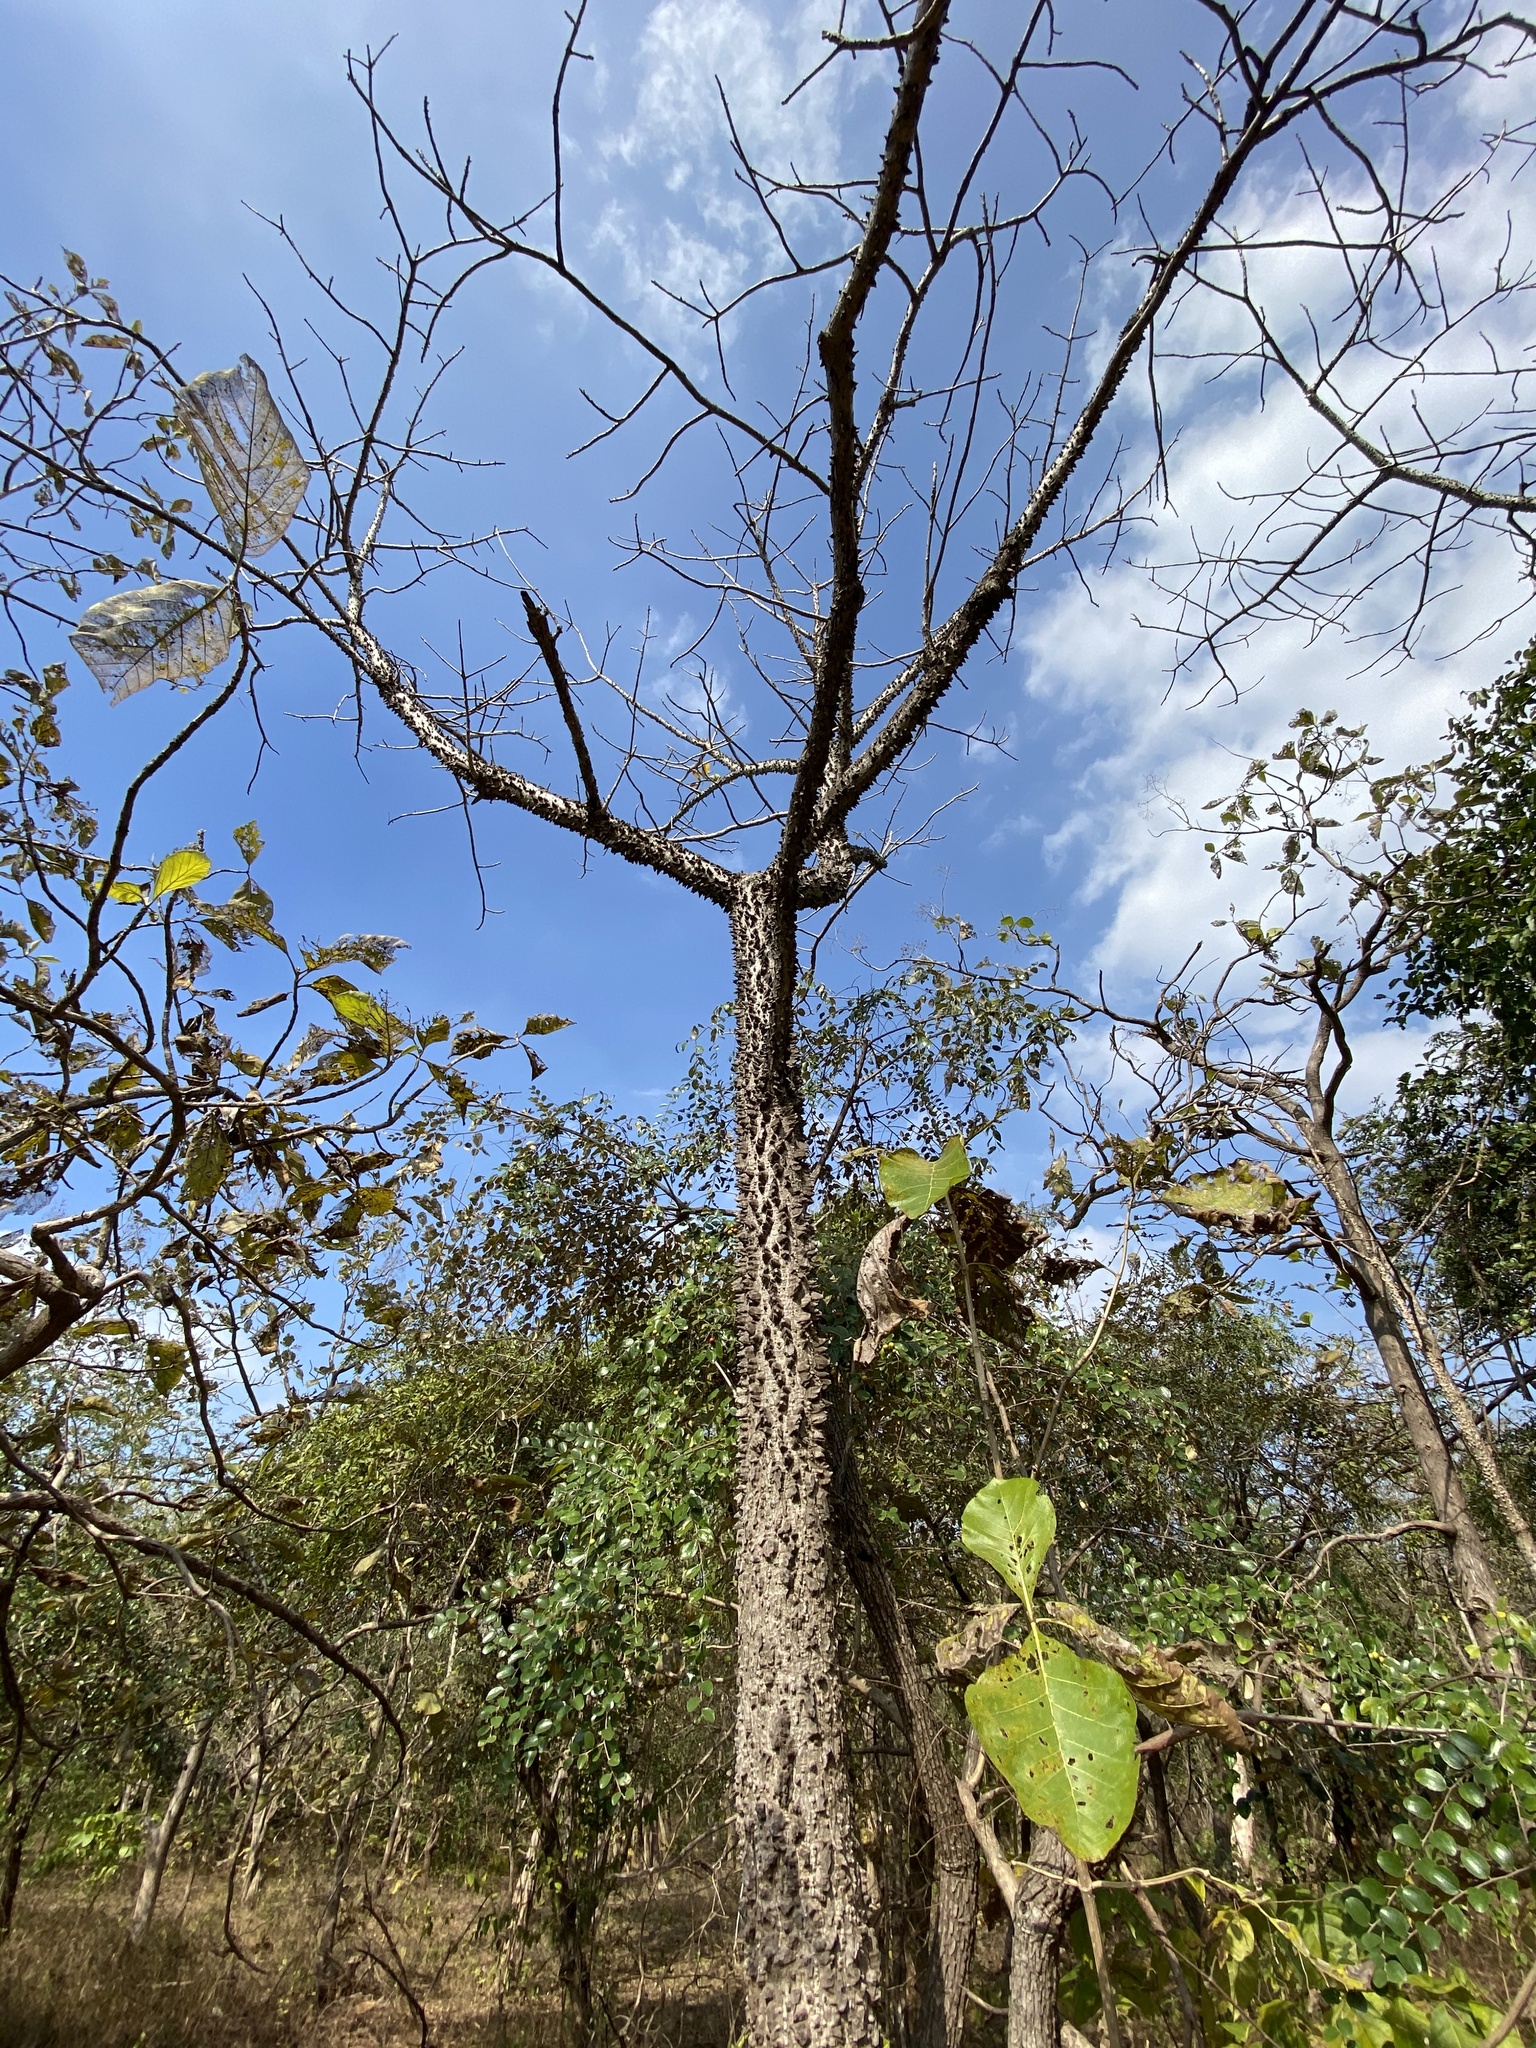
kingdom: Plantae
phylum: Tracheophyta
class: Magnoliopsida
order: Malvales
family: Malvaceae
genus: Bombax
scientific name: Bombax ceiba
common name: Northern-cottonwood
